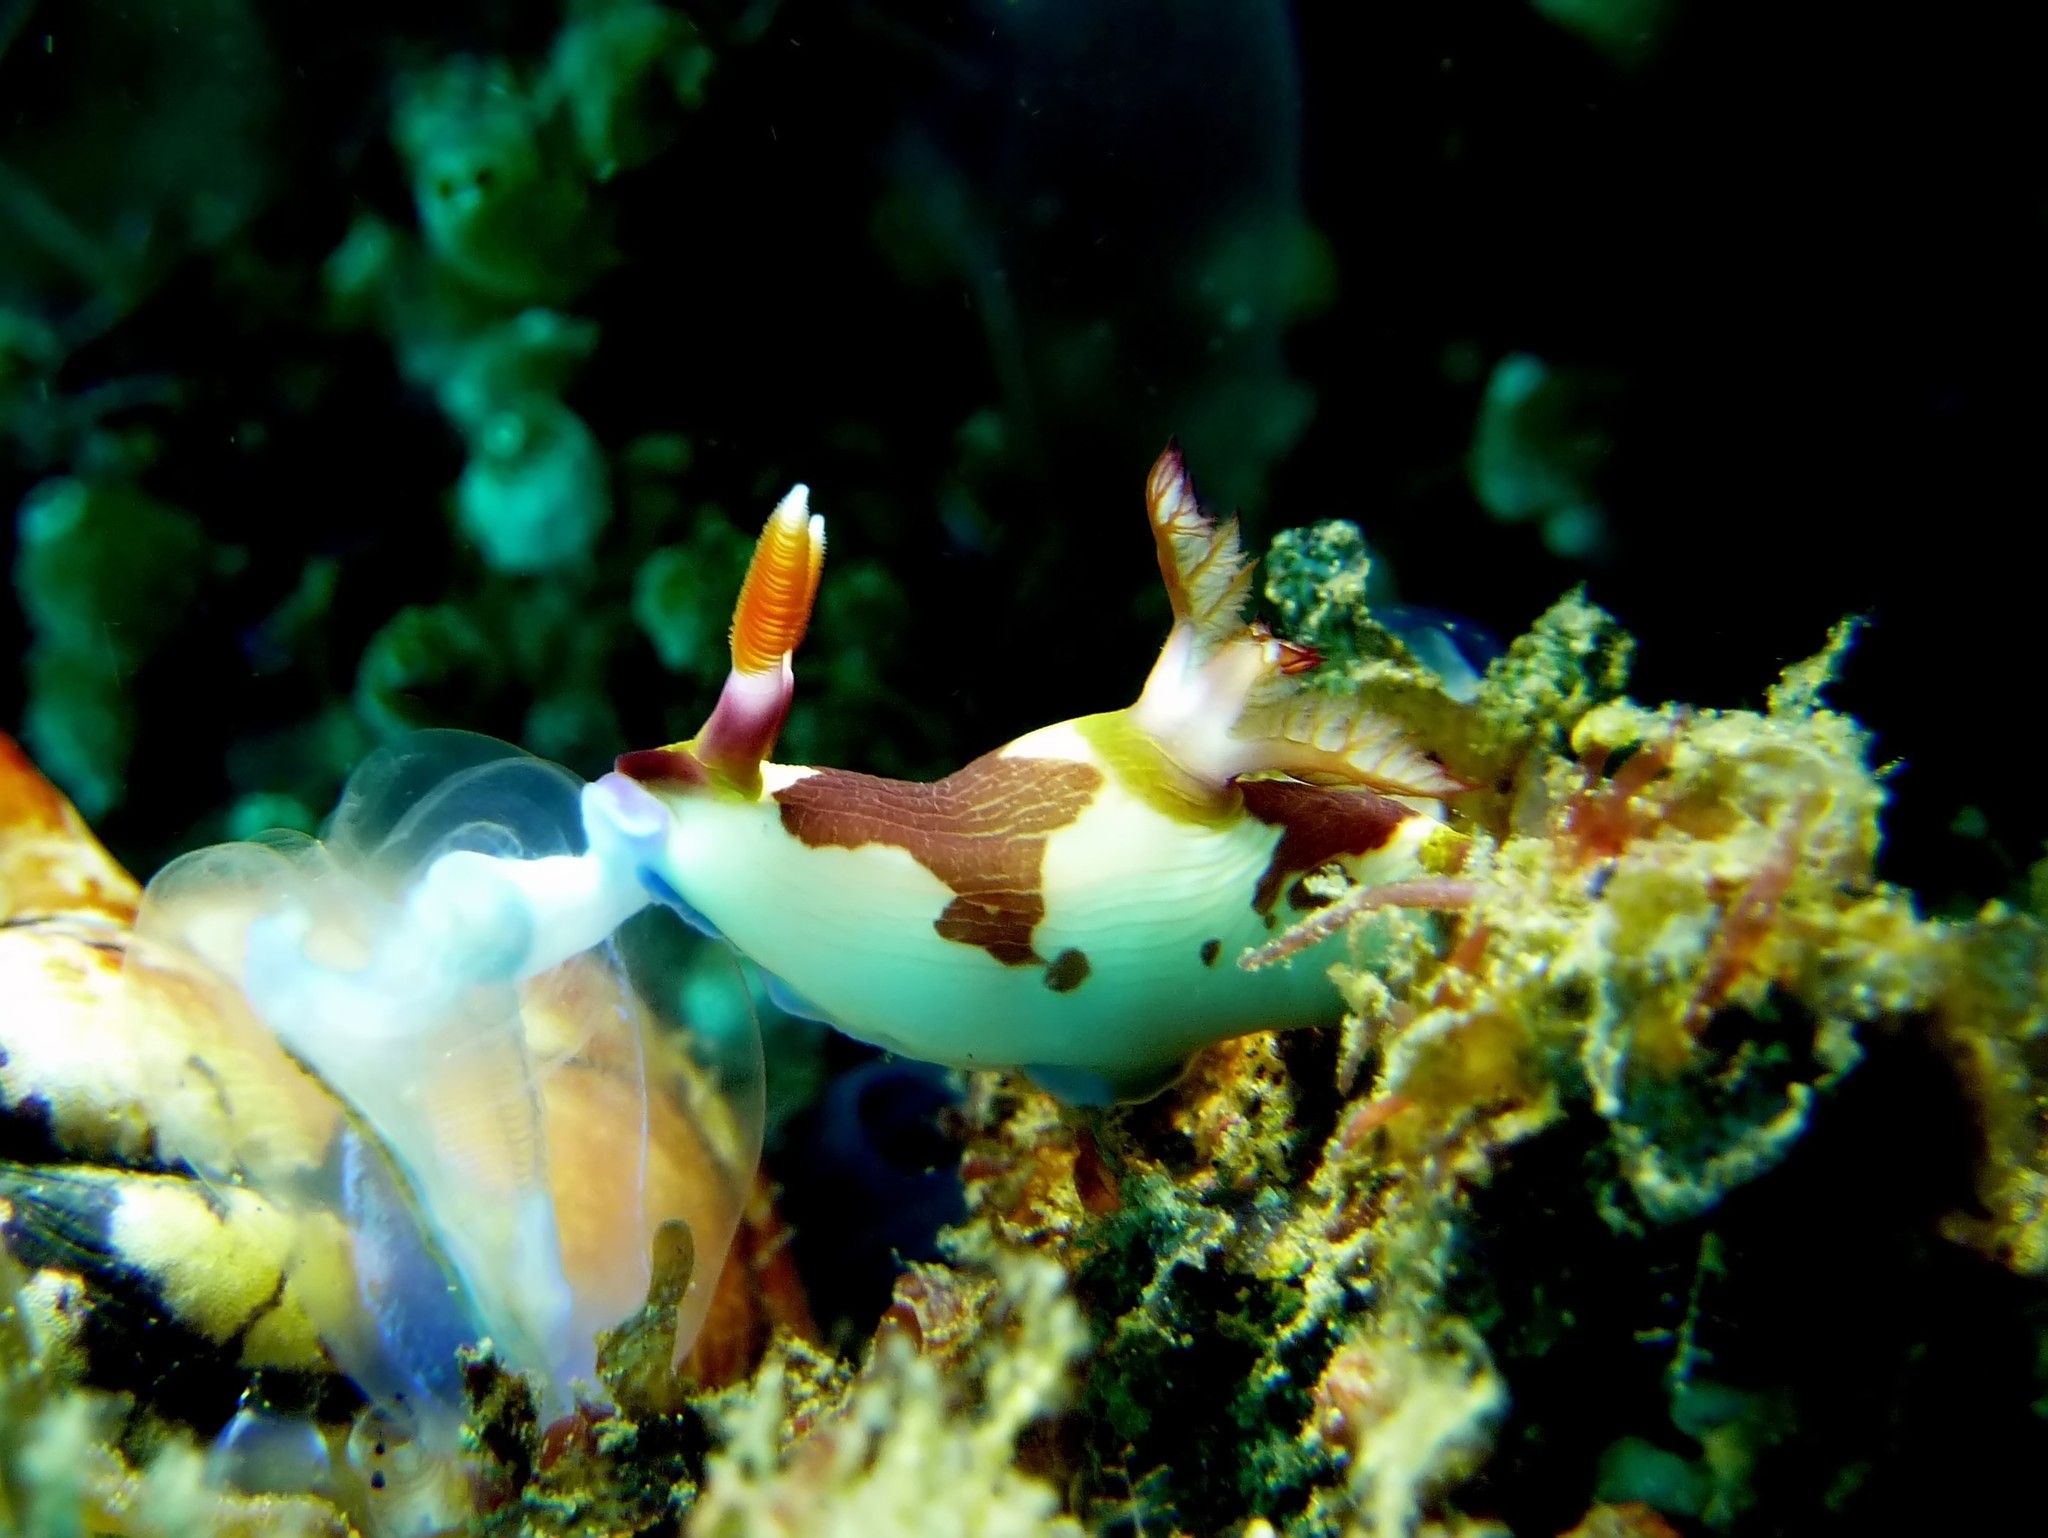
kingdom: Animalia
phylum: Mollusca
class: Gastropoda
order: Nudibranchia
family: Polyceridae
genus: Nembrotha
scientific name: Nembrotha purpureolineata
